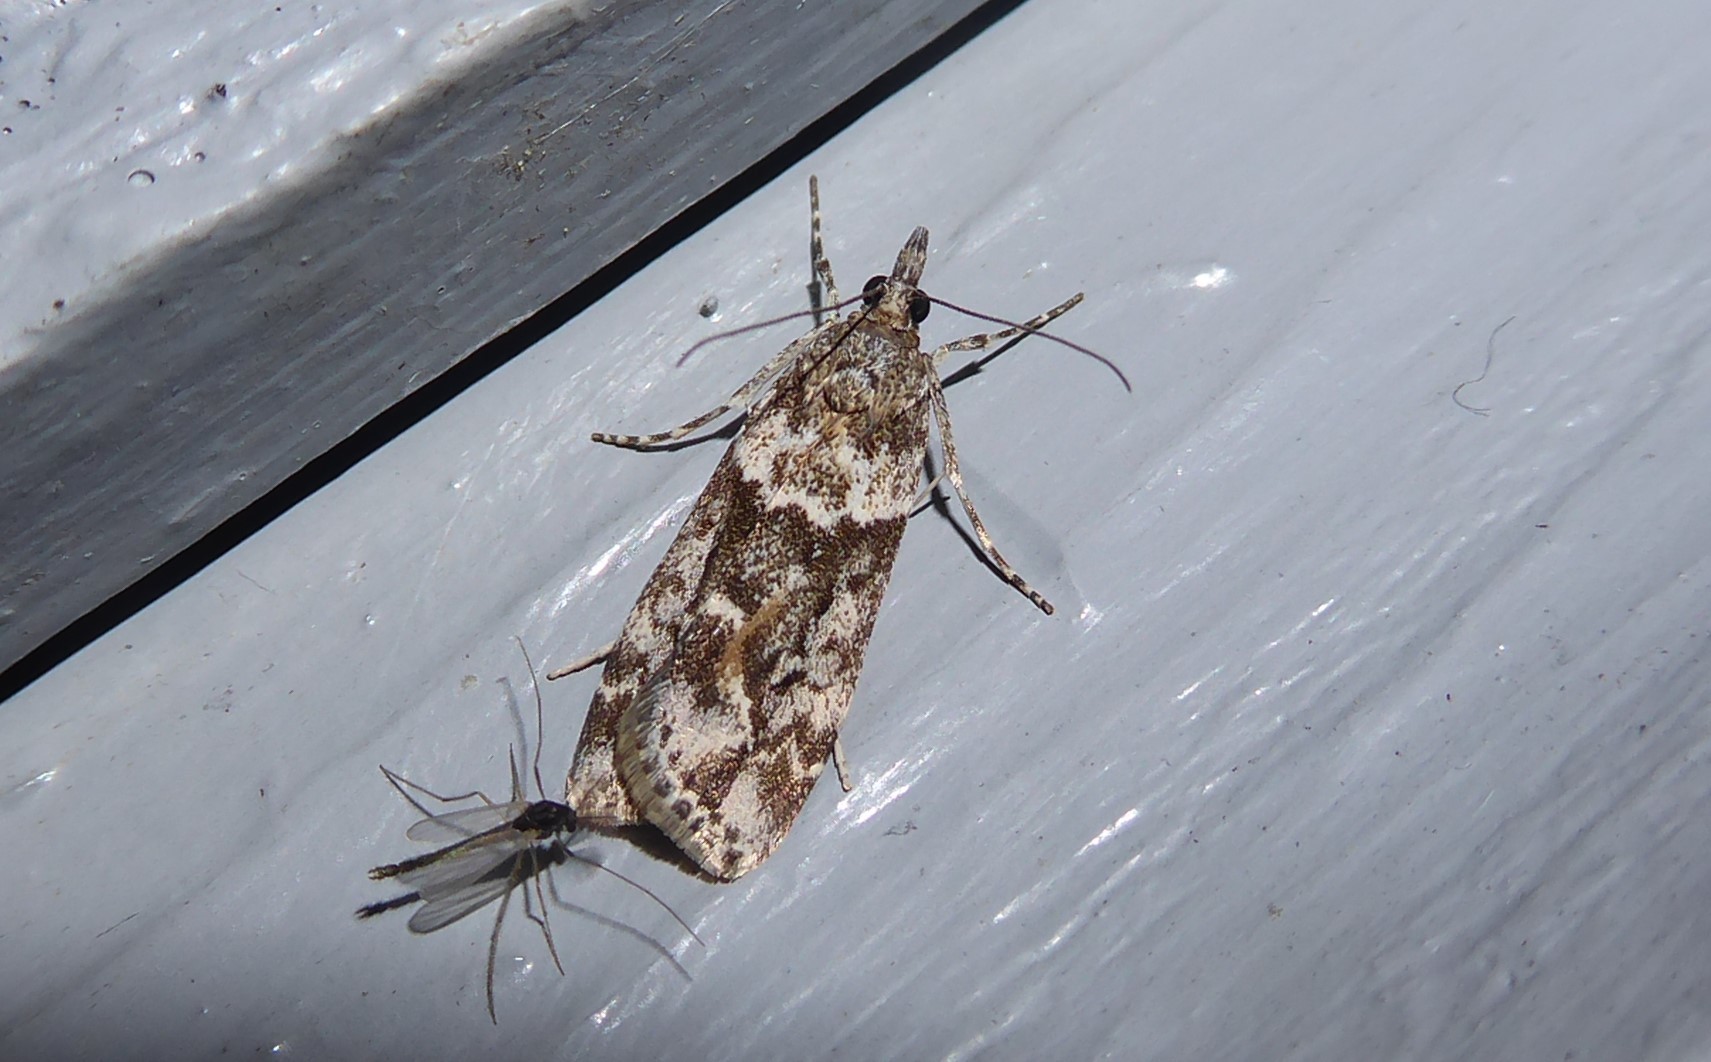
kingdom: Animalia
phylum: Arthropoda
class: Insecta
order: Lepidoptera
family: Crambidae
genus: Eudonia
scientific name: Eudonia submarginalis
